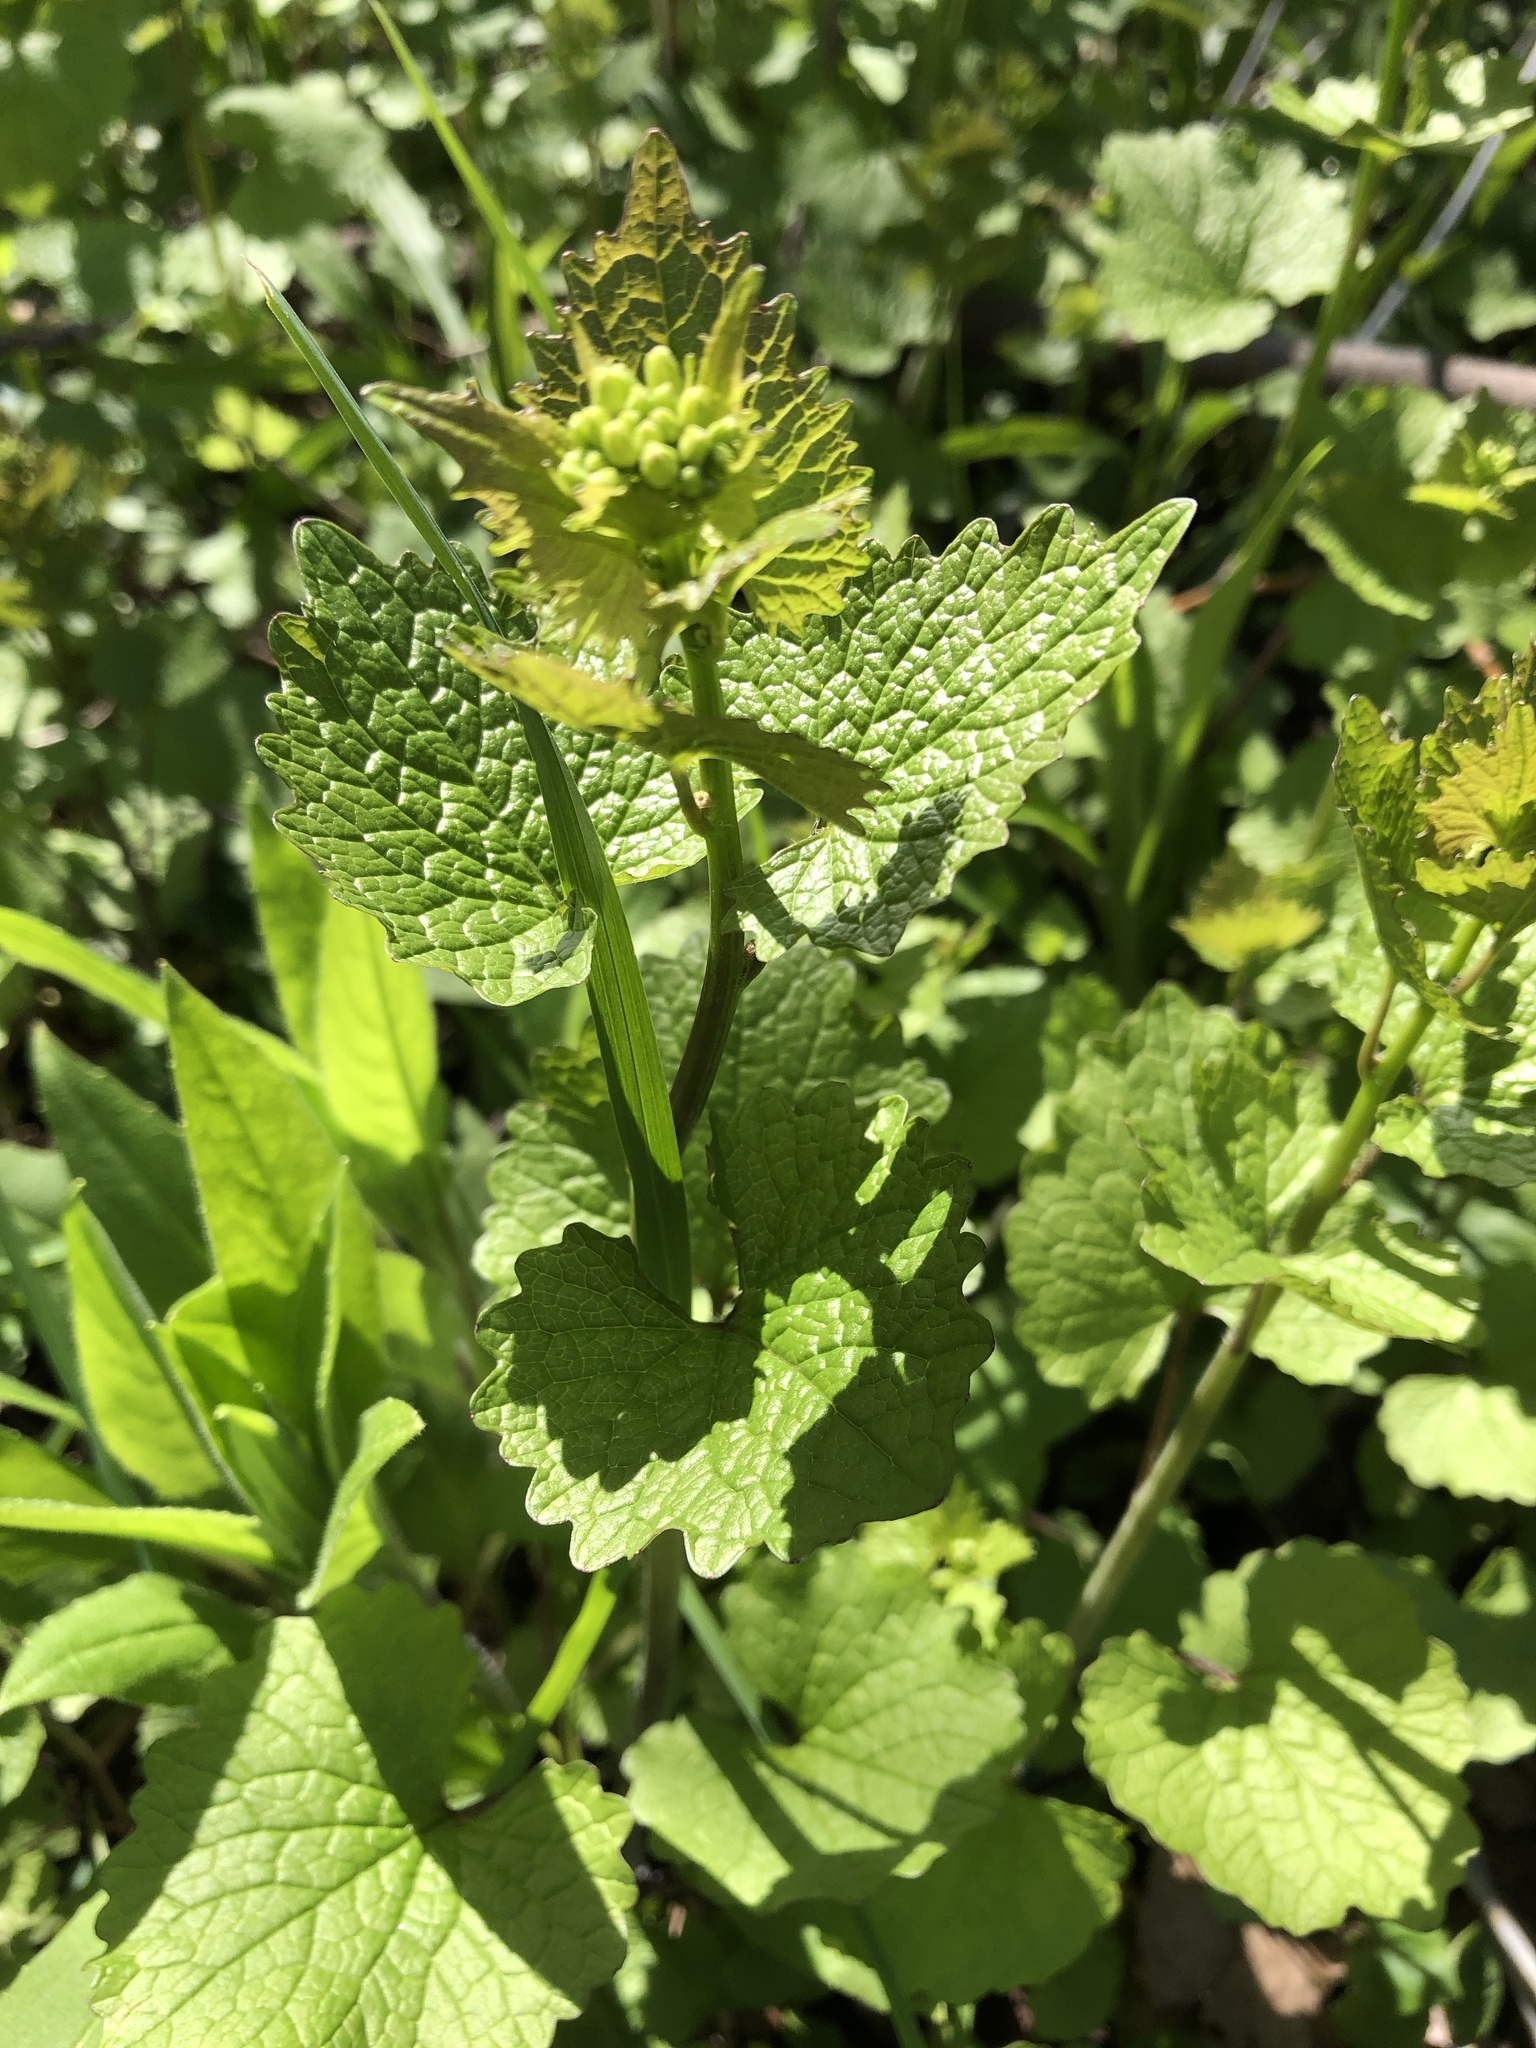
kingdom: Plantae
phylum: Tracheophyta
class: Magnoliopsida
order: Brassicales
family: Brassicaceae
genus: Alliaria
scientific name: Alliaria petiolata
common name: Garlic mustard
